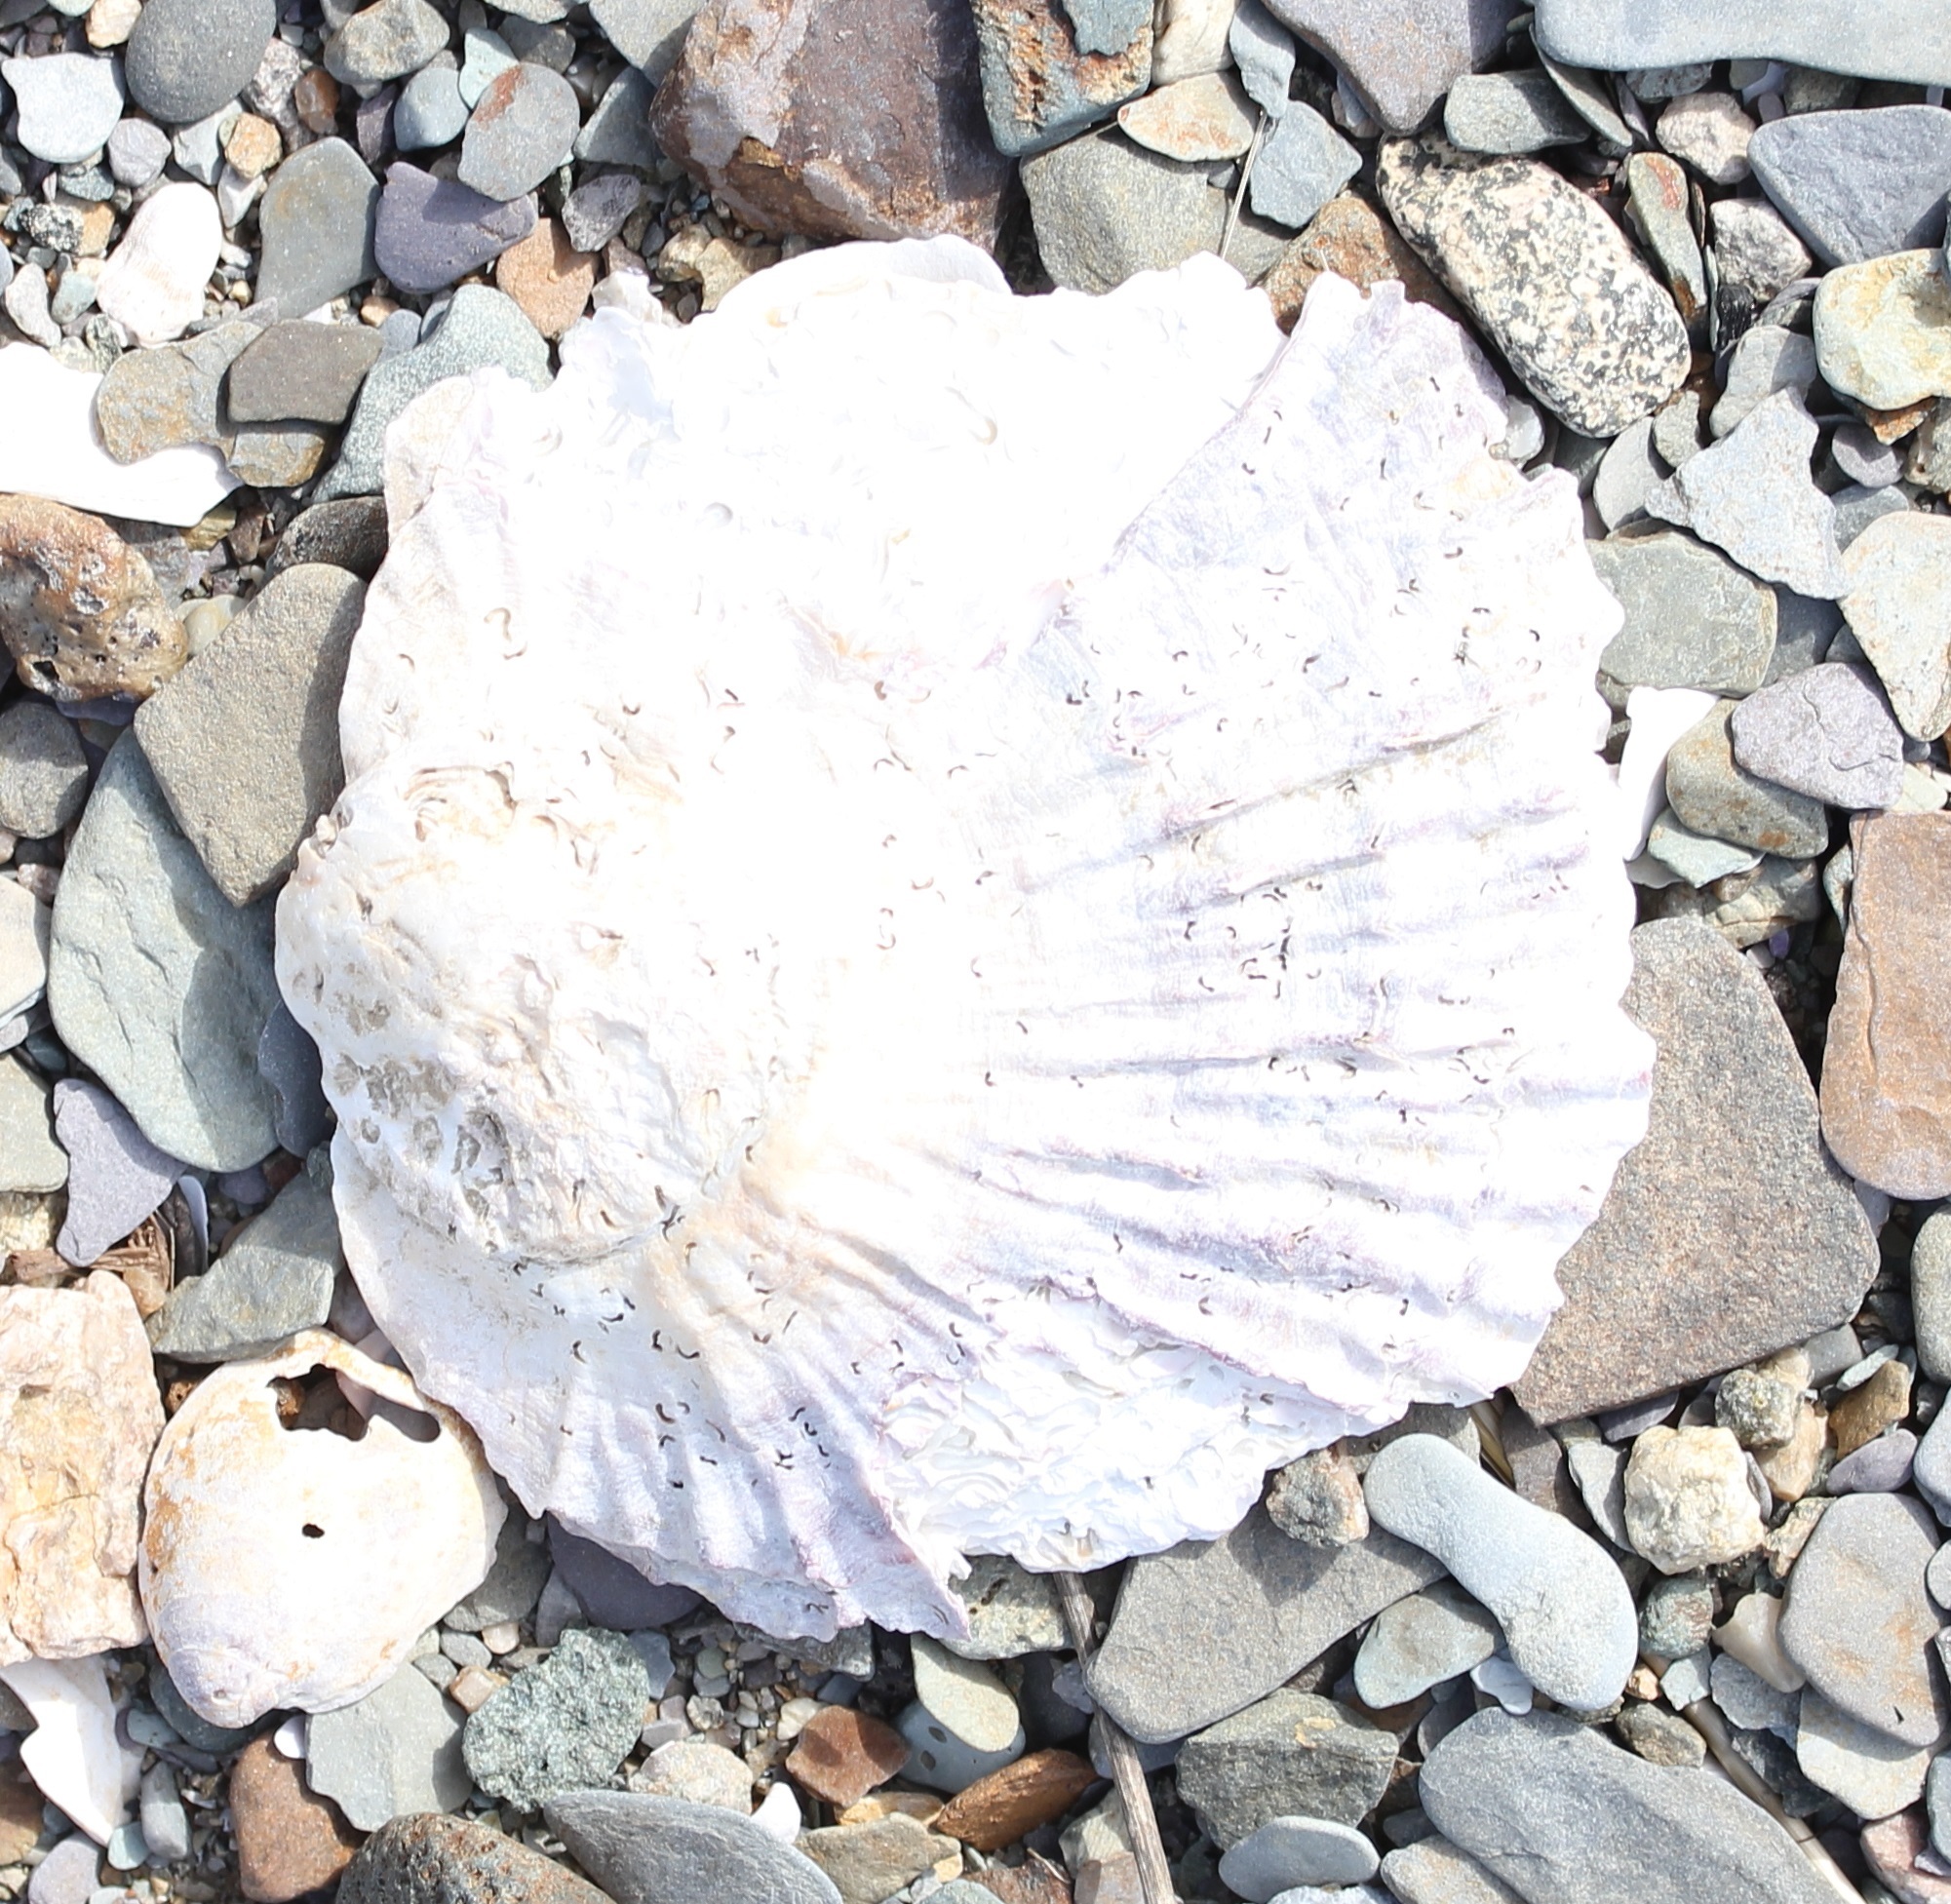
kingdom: Animalia
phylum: Mollusca
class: Bivalvia
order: Ostreida
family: Ostreidae
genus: Ostrea
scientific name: Ostrea edulis
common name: Flat oyster
